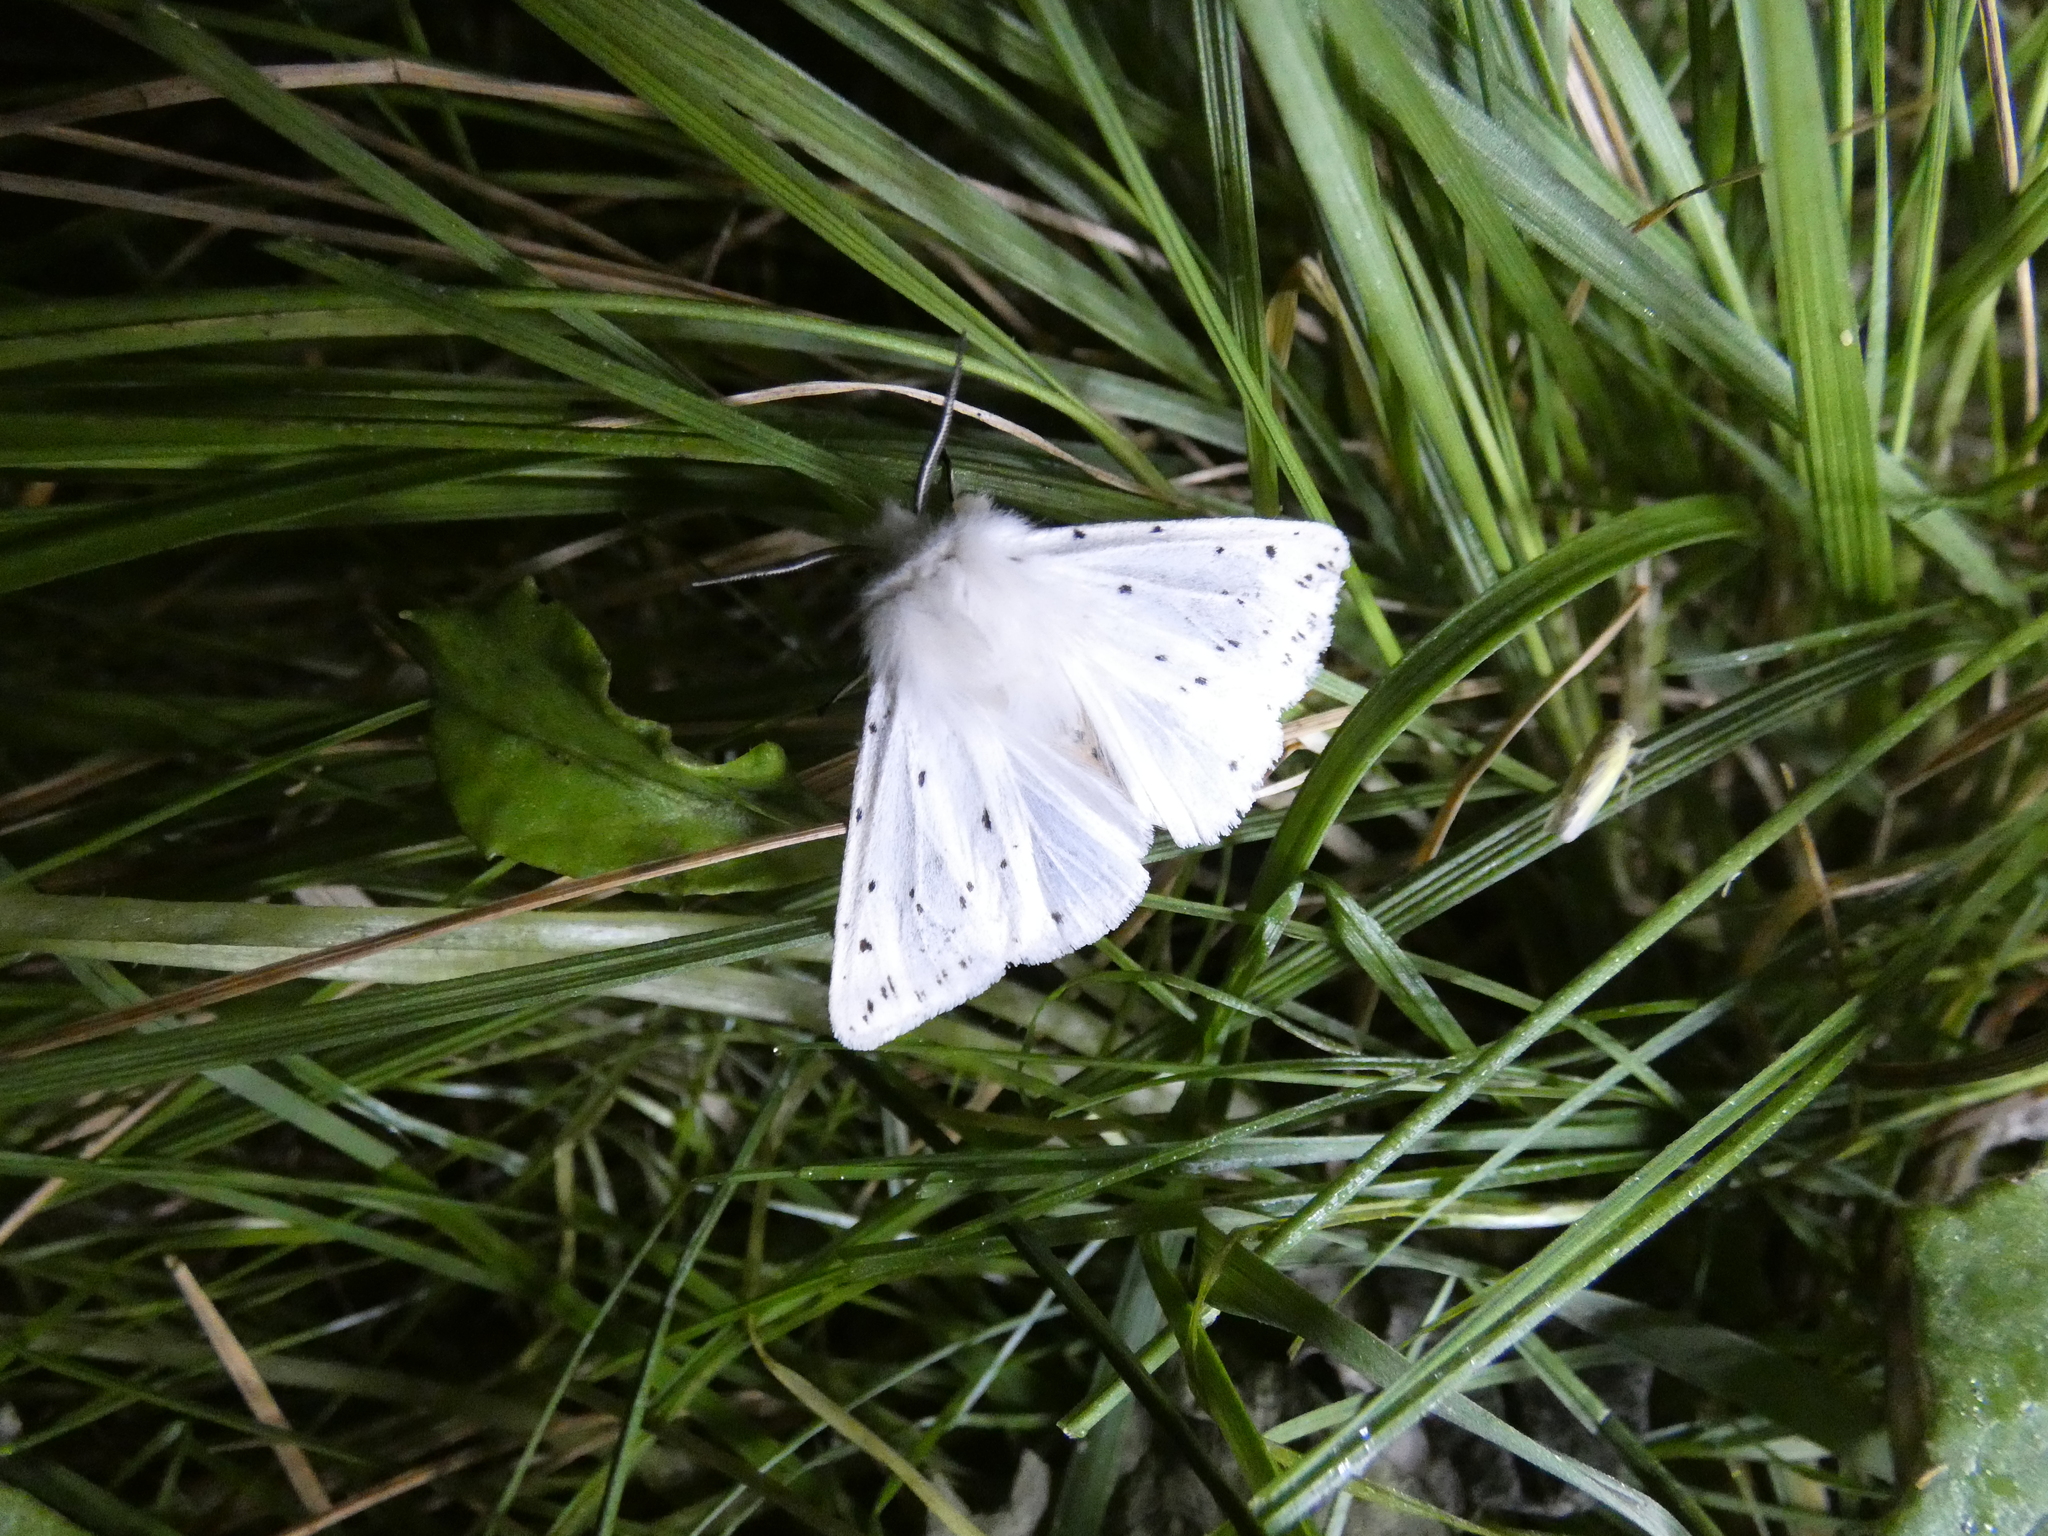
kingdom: Animalia
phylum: Arthropoda
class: Insecta
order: Lepidoptera
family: Erebidae
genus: Spilosoma
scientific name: Spilosoma lubricipeda
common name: White ermine
